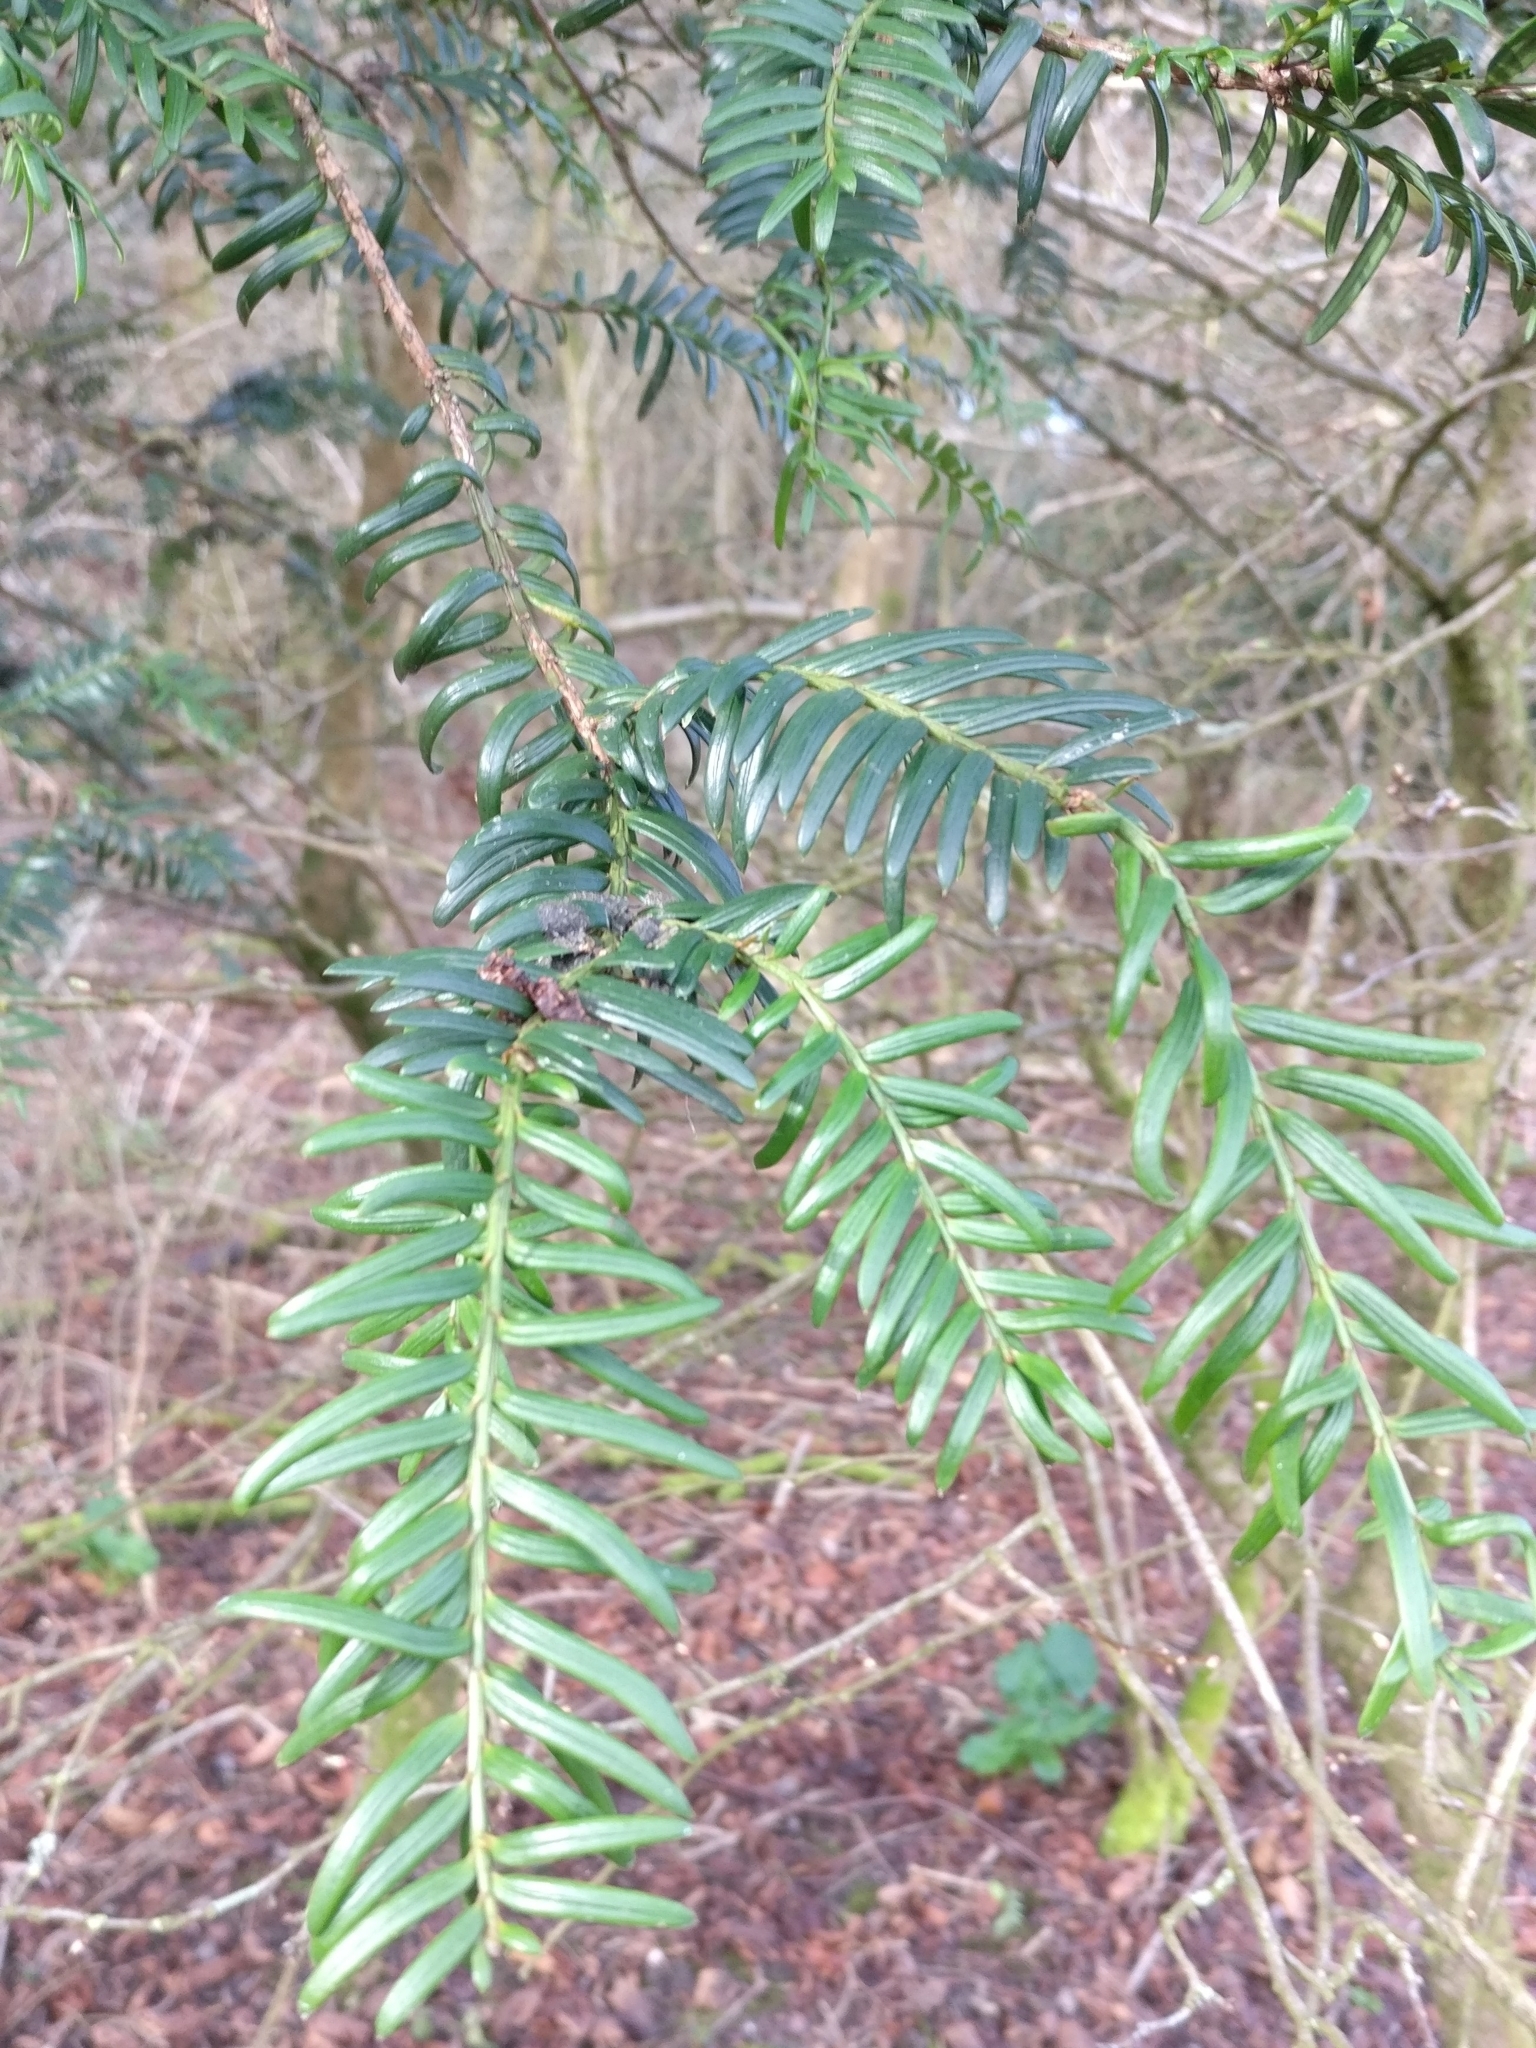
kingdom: Plantae
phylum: Tracheophyta
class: Pinopsida
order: Pinales
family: Taxaceae
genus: Taxus
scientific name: Taxus baccata
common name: Yew
